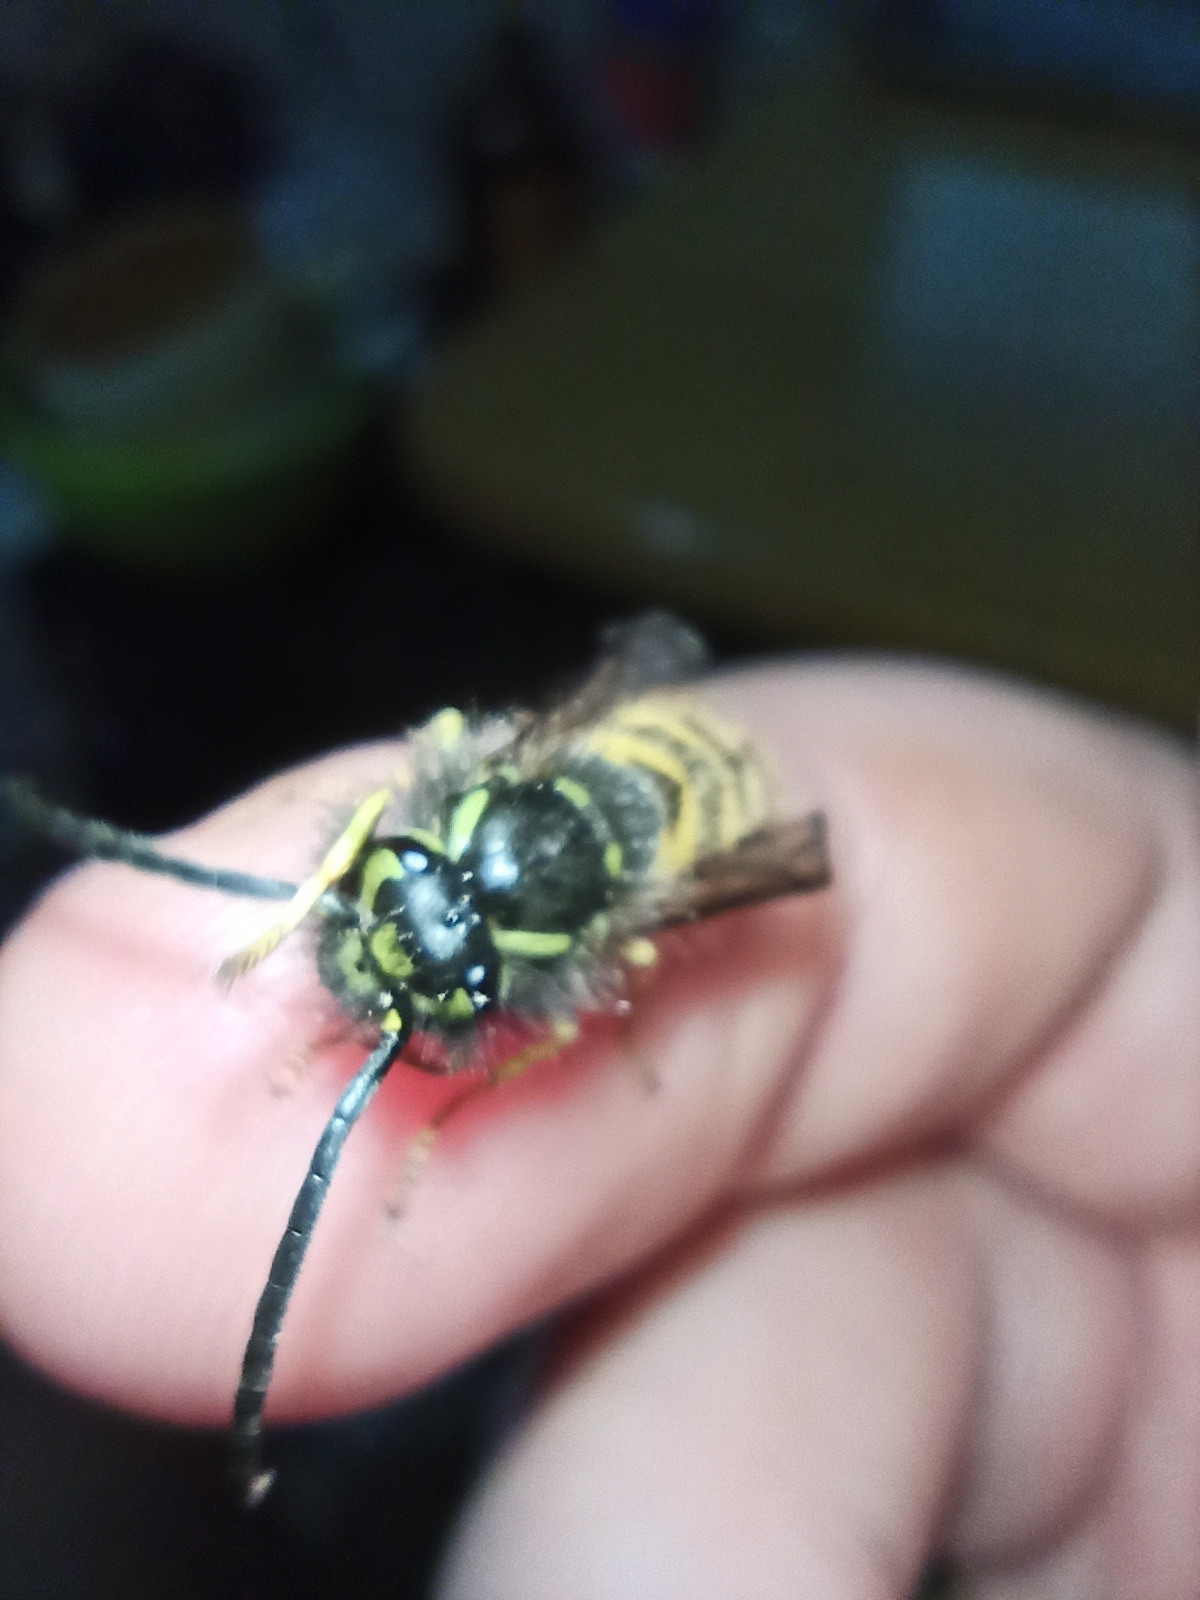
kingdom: Animalia
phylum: Arthropoda
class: Insecta
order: Hymenoptera
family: Vespidae
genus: Vespula
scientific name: Vespula vulgaris
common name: Common wasp
